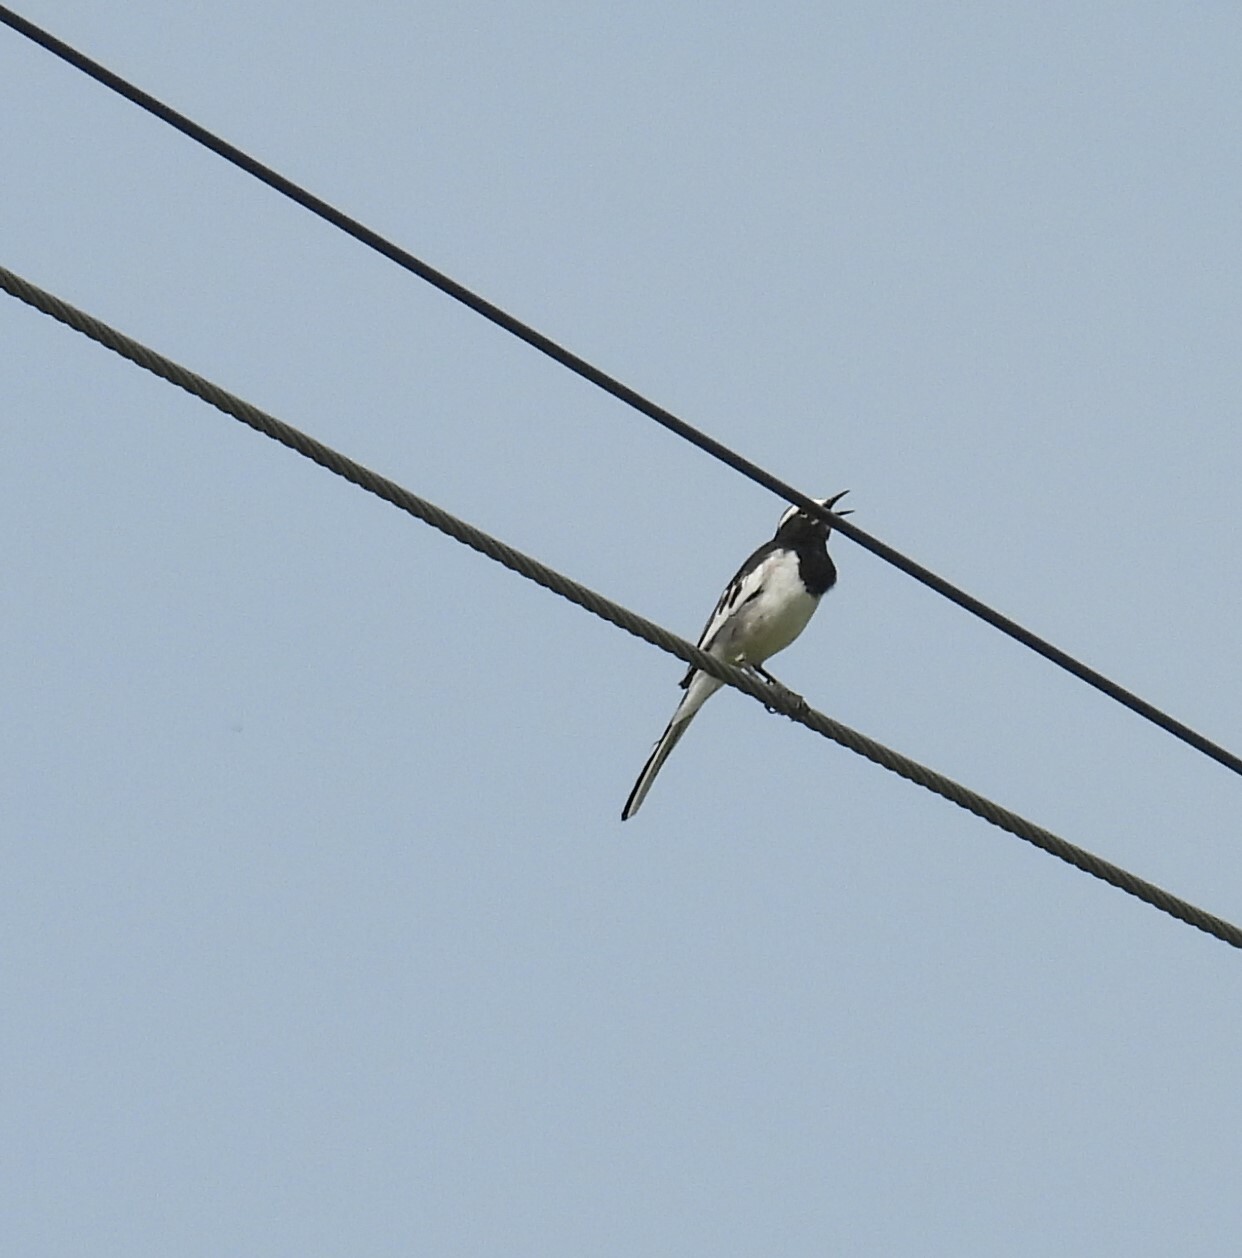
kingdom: Animalia
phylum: Chordata
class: Aves
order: Passeriformes
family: Motacillidae
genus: Motacilla
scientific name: Motacilla maderaspatensis
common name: White-browed wagtail
